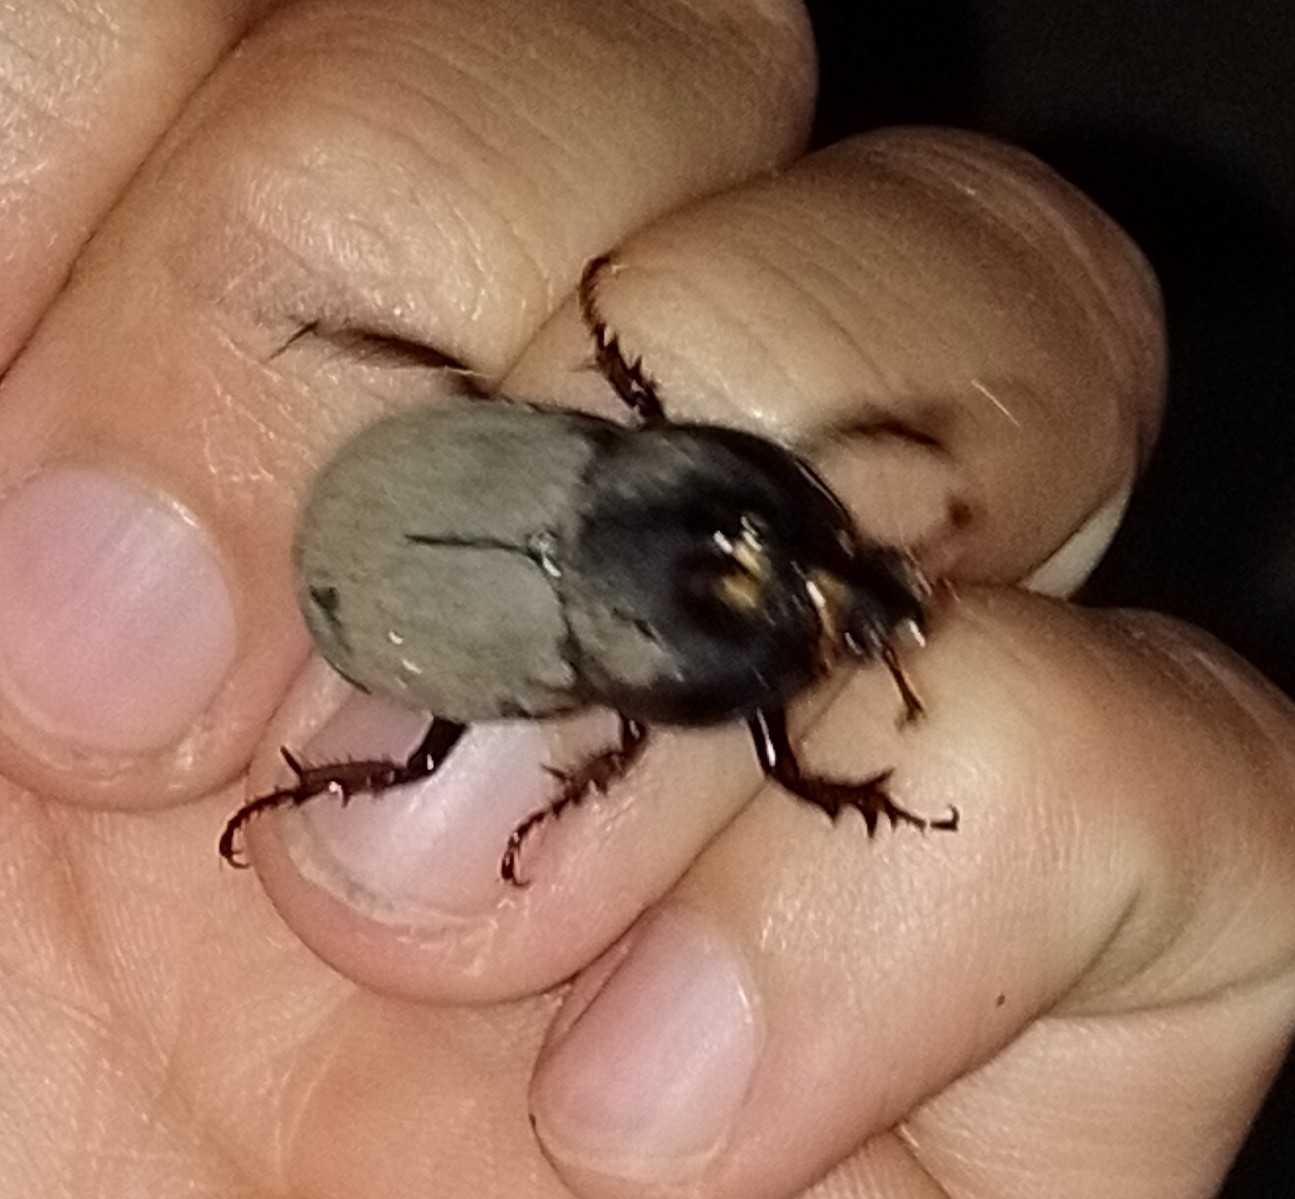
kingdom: Animalia
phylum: Arthropoda
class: Insecta
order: Coleoptera
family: Scarabaeidae
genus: Diloboderus
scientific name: Diloboderus abderus
